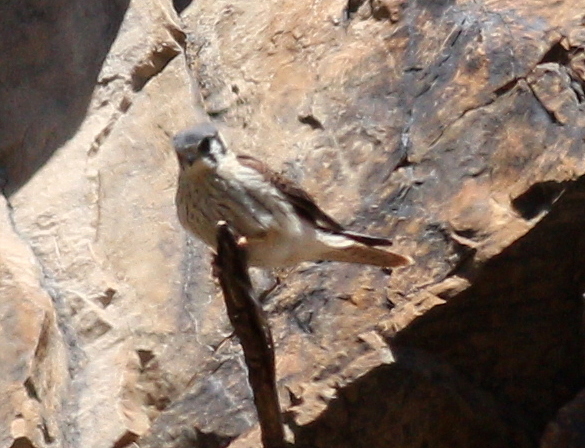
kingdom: Animalia
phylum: Chordata
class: Aves
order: Falconiformes
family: Falconidae
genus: Falco
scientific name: Falco sparverius
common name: American kestrel
